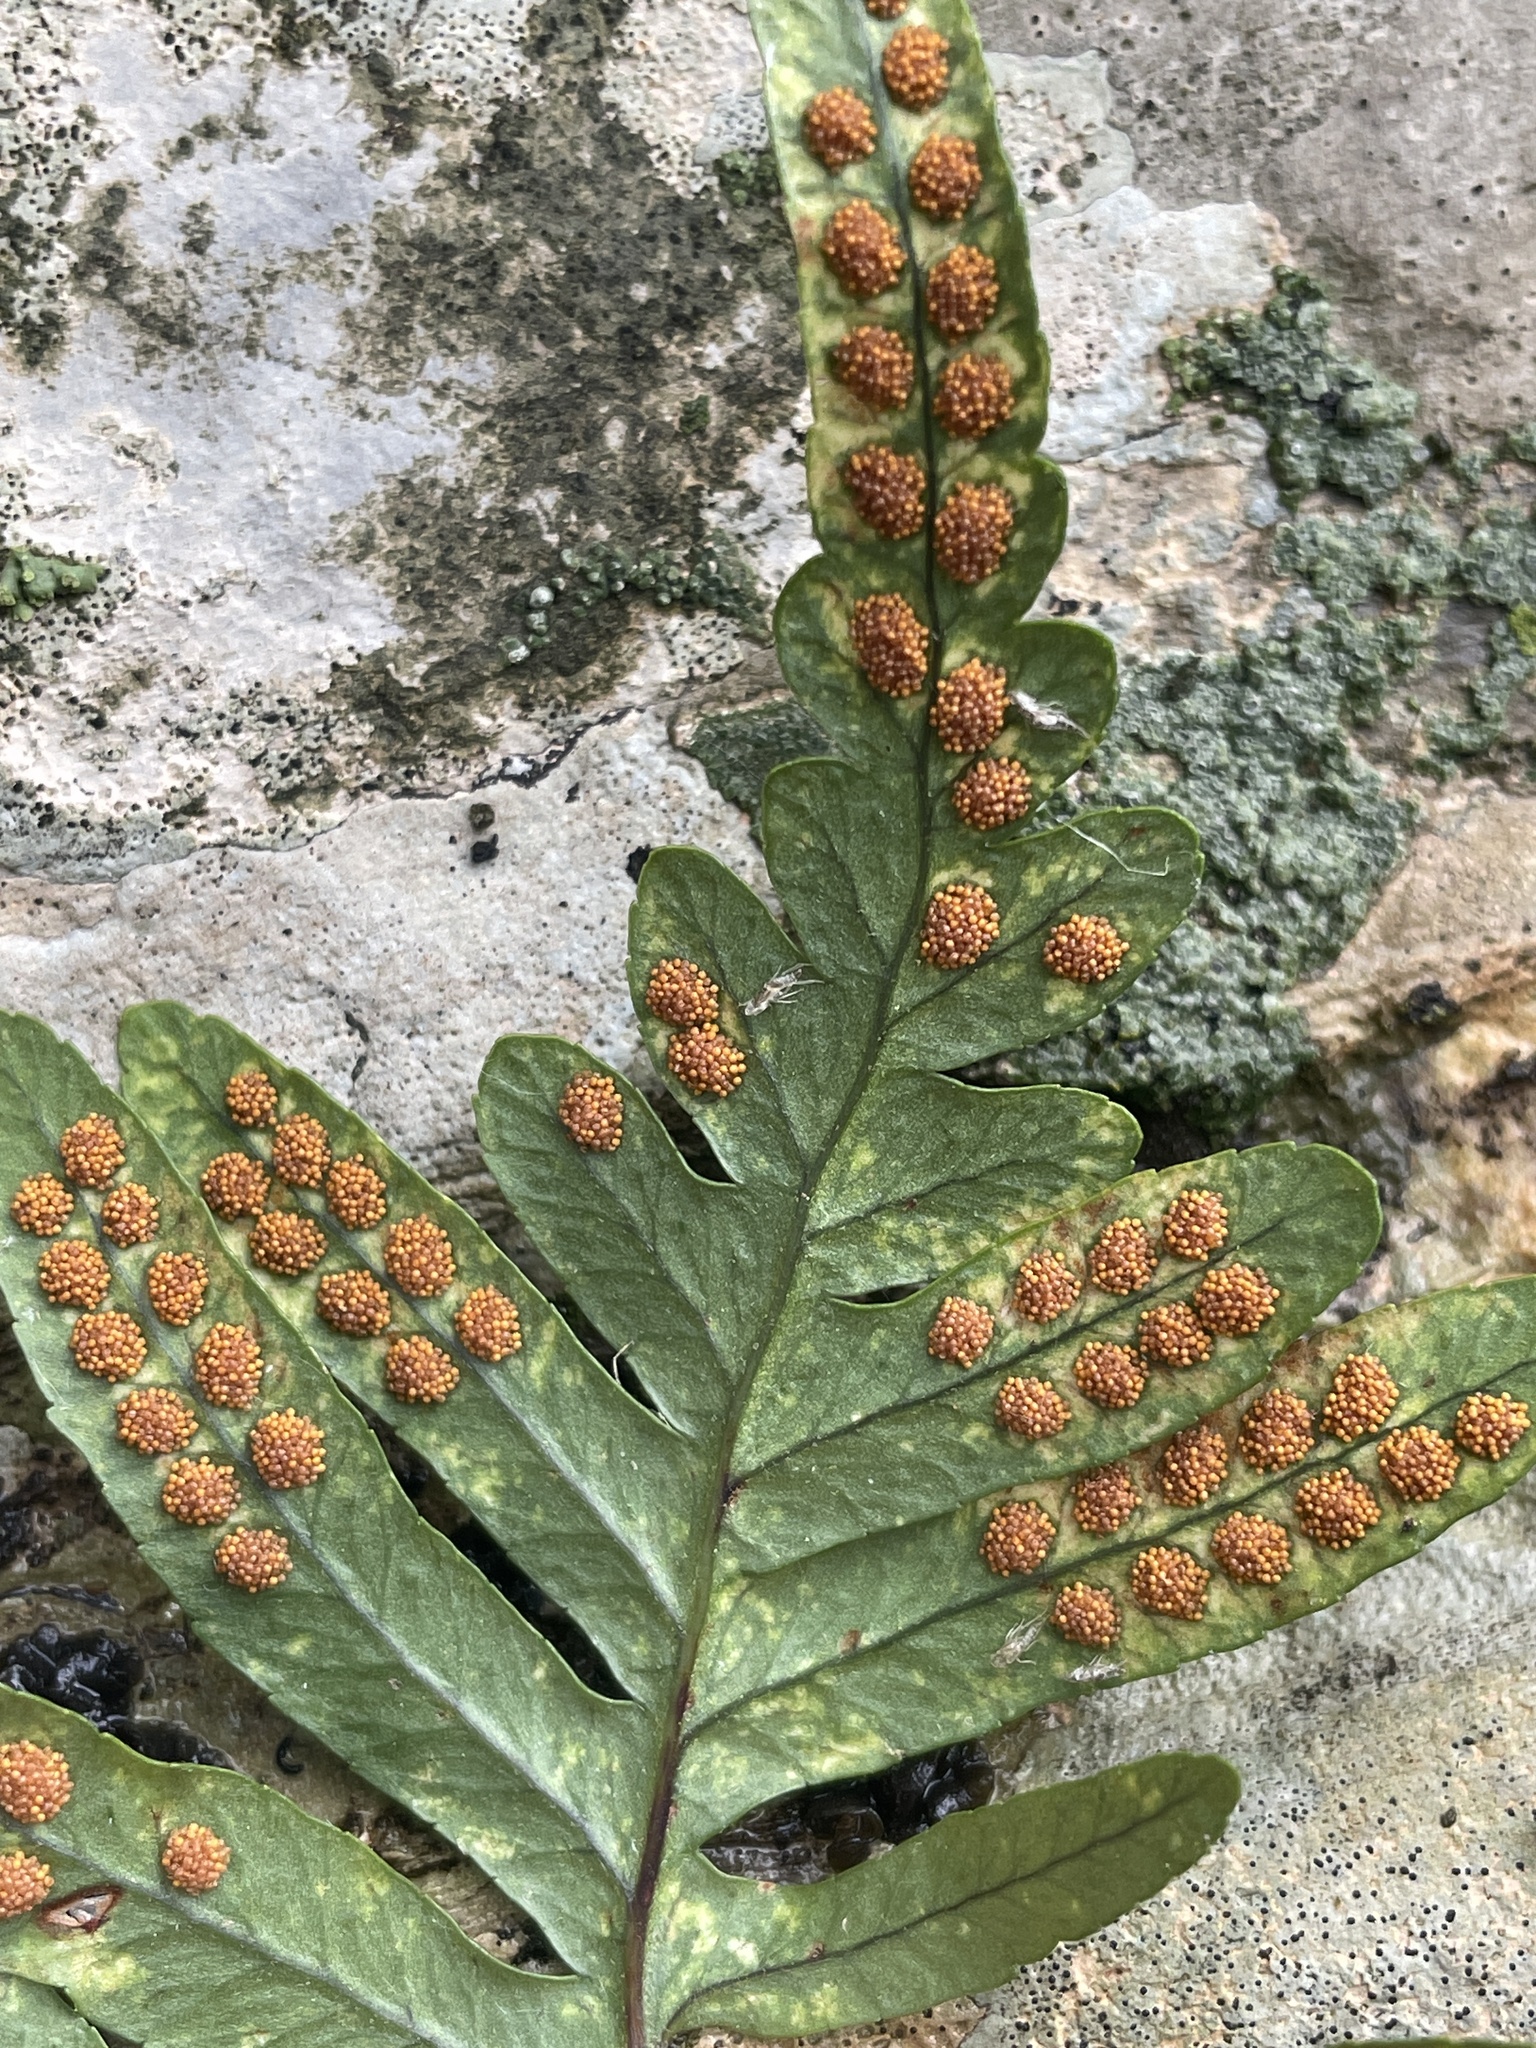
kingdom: Plantae
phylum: Tracheophyta
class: Polypodiopsida
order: Polypodiales
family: Polypodiaceae
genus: Polypodium
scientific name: Polypodium cambricum
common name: Southern polypody
